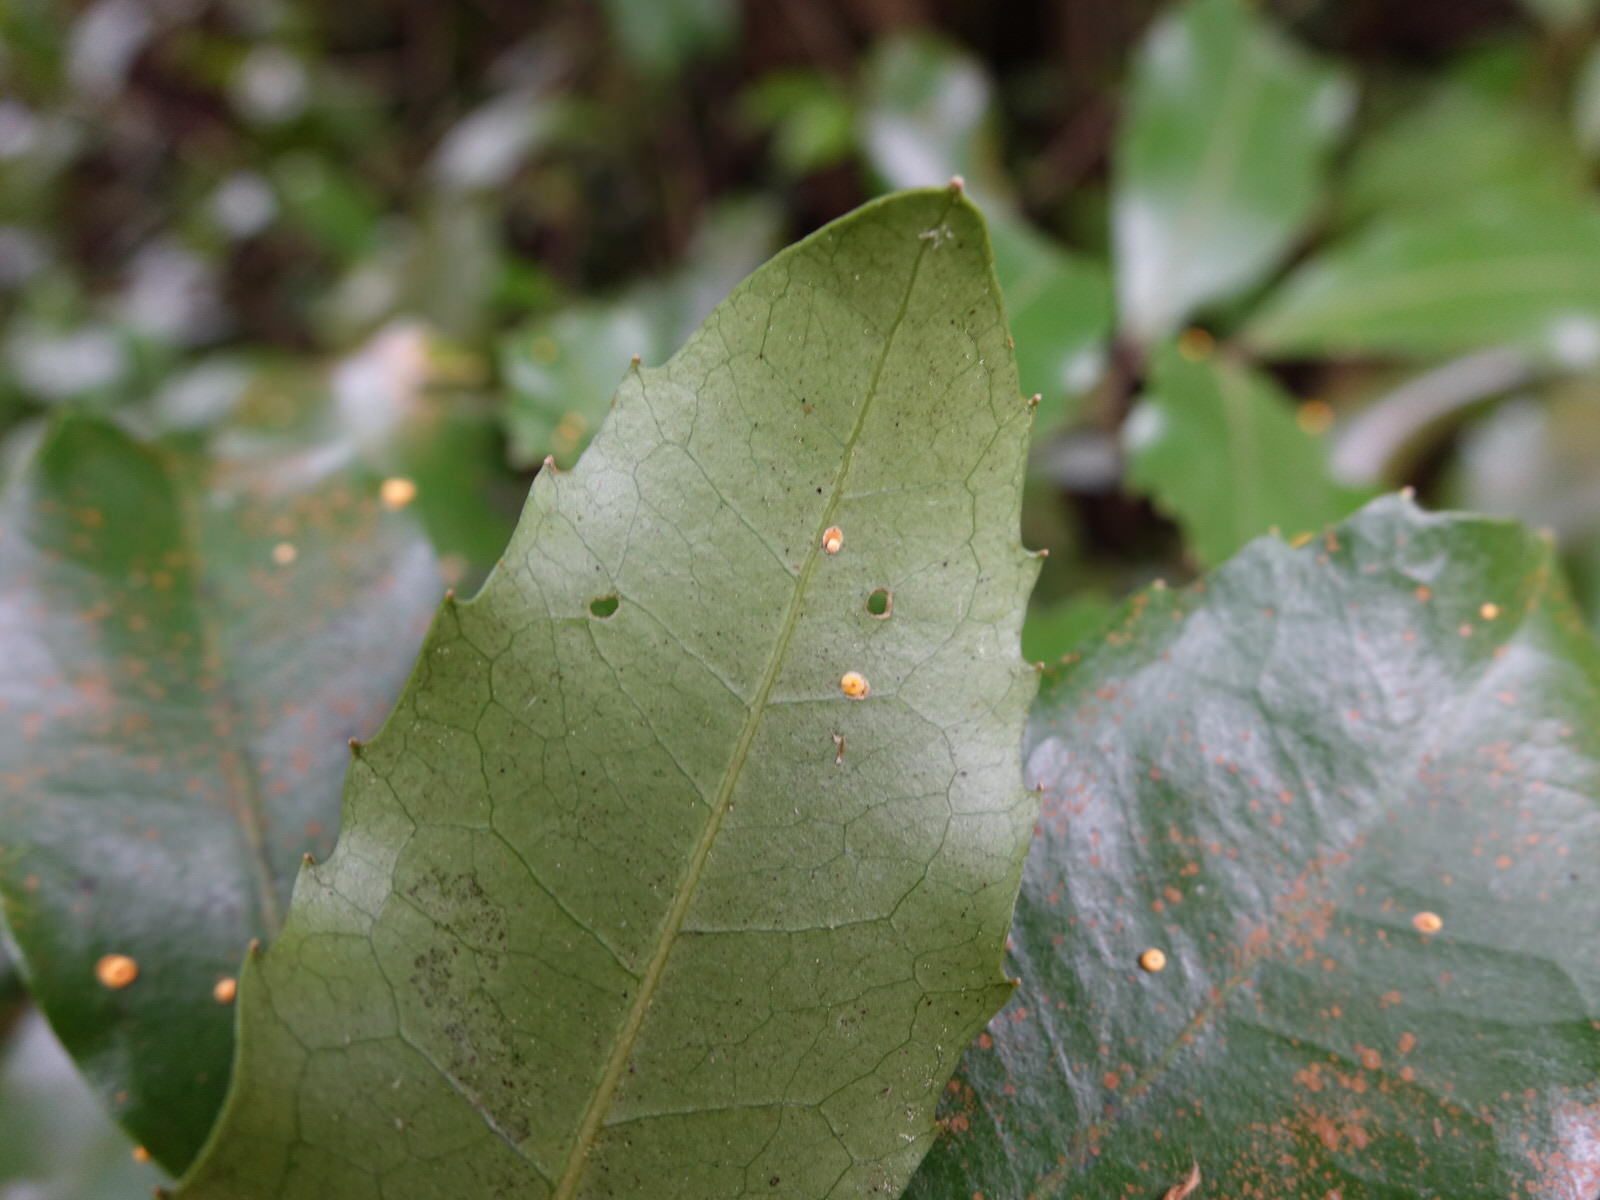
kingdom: Fungi
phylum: Ascomycota
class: Sordariomycetes
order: Hypocreales
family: Clavicipitaceae
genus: Hypocrella
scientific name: Hypocrella
